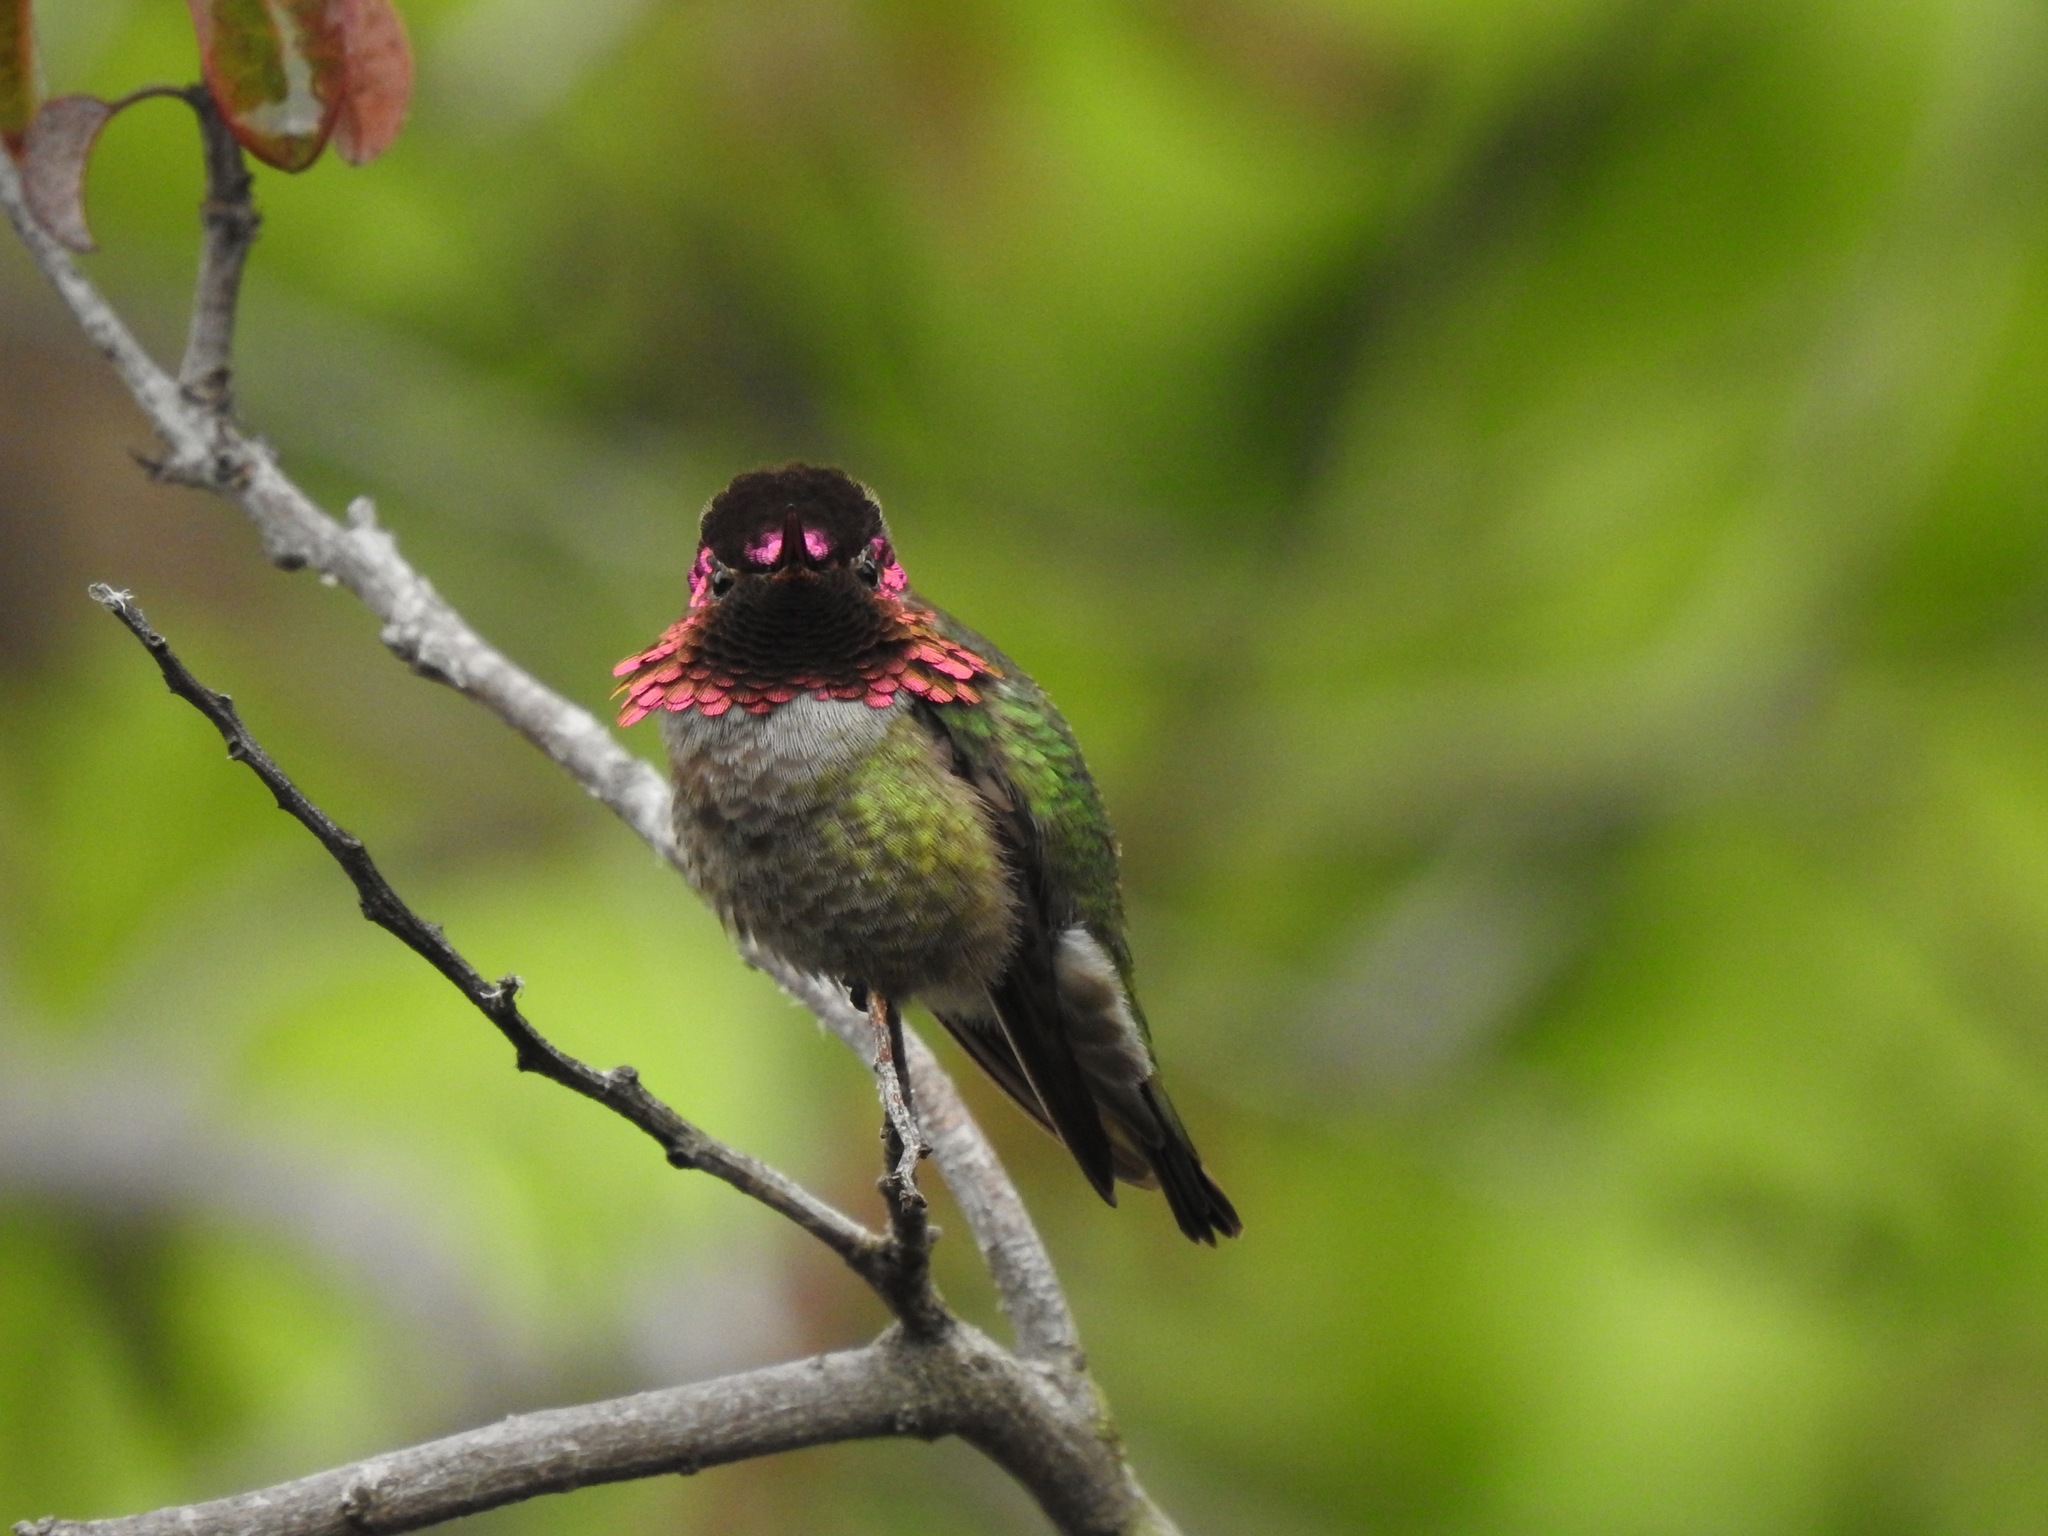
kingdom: Animalia
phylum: Chordata
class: Aves
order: Apodiformes
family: Trochilidae
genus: Calypte
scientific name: Calypte anna
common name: Anna's hummingbird
